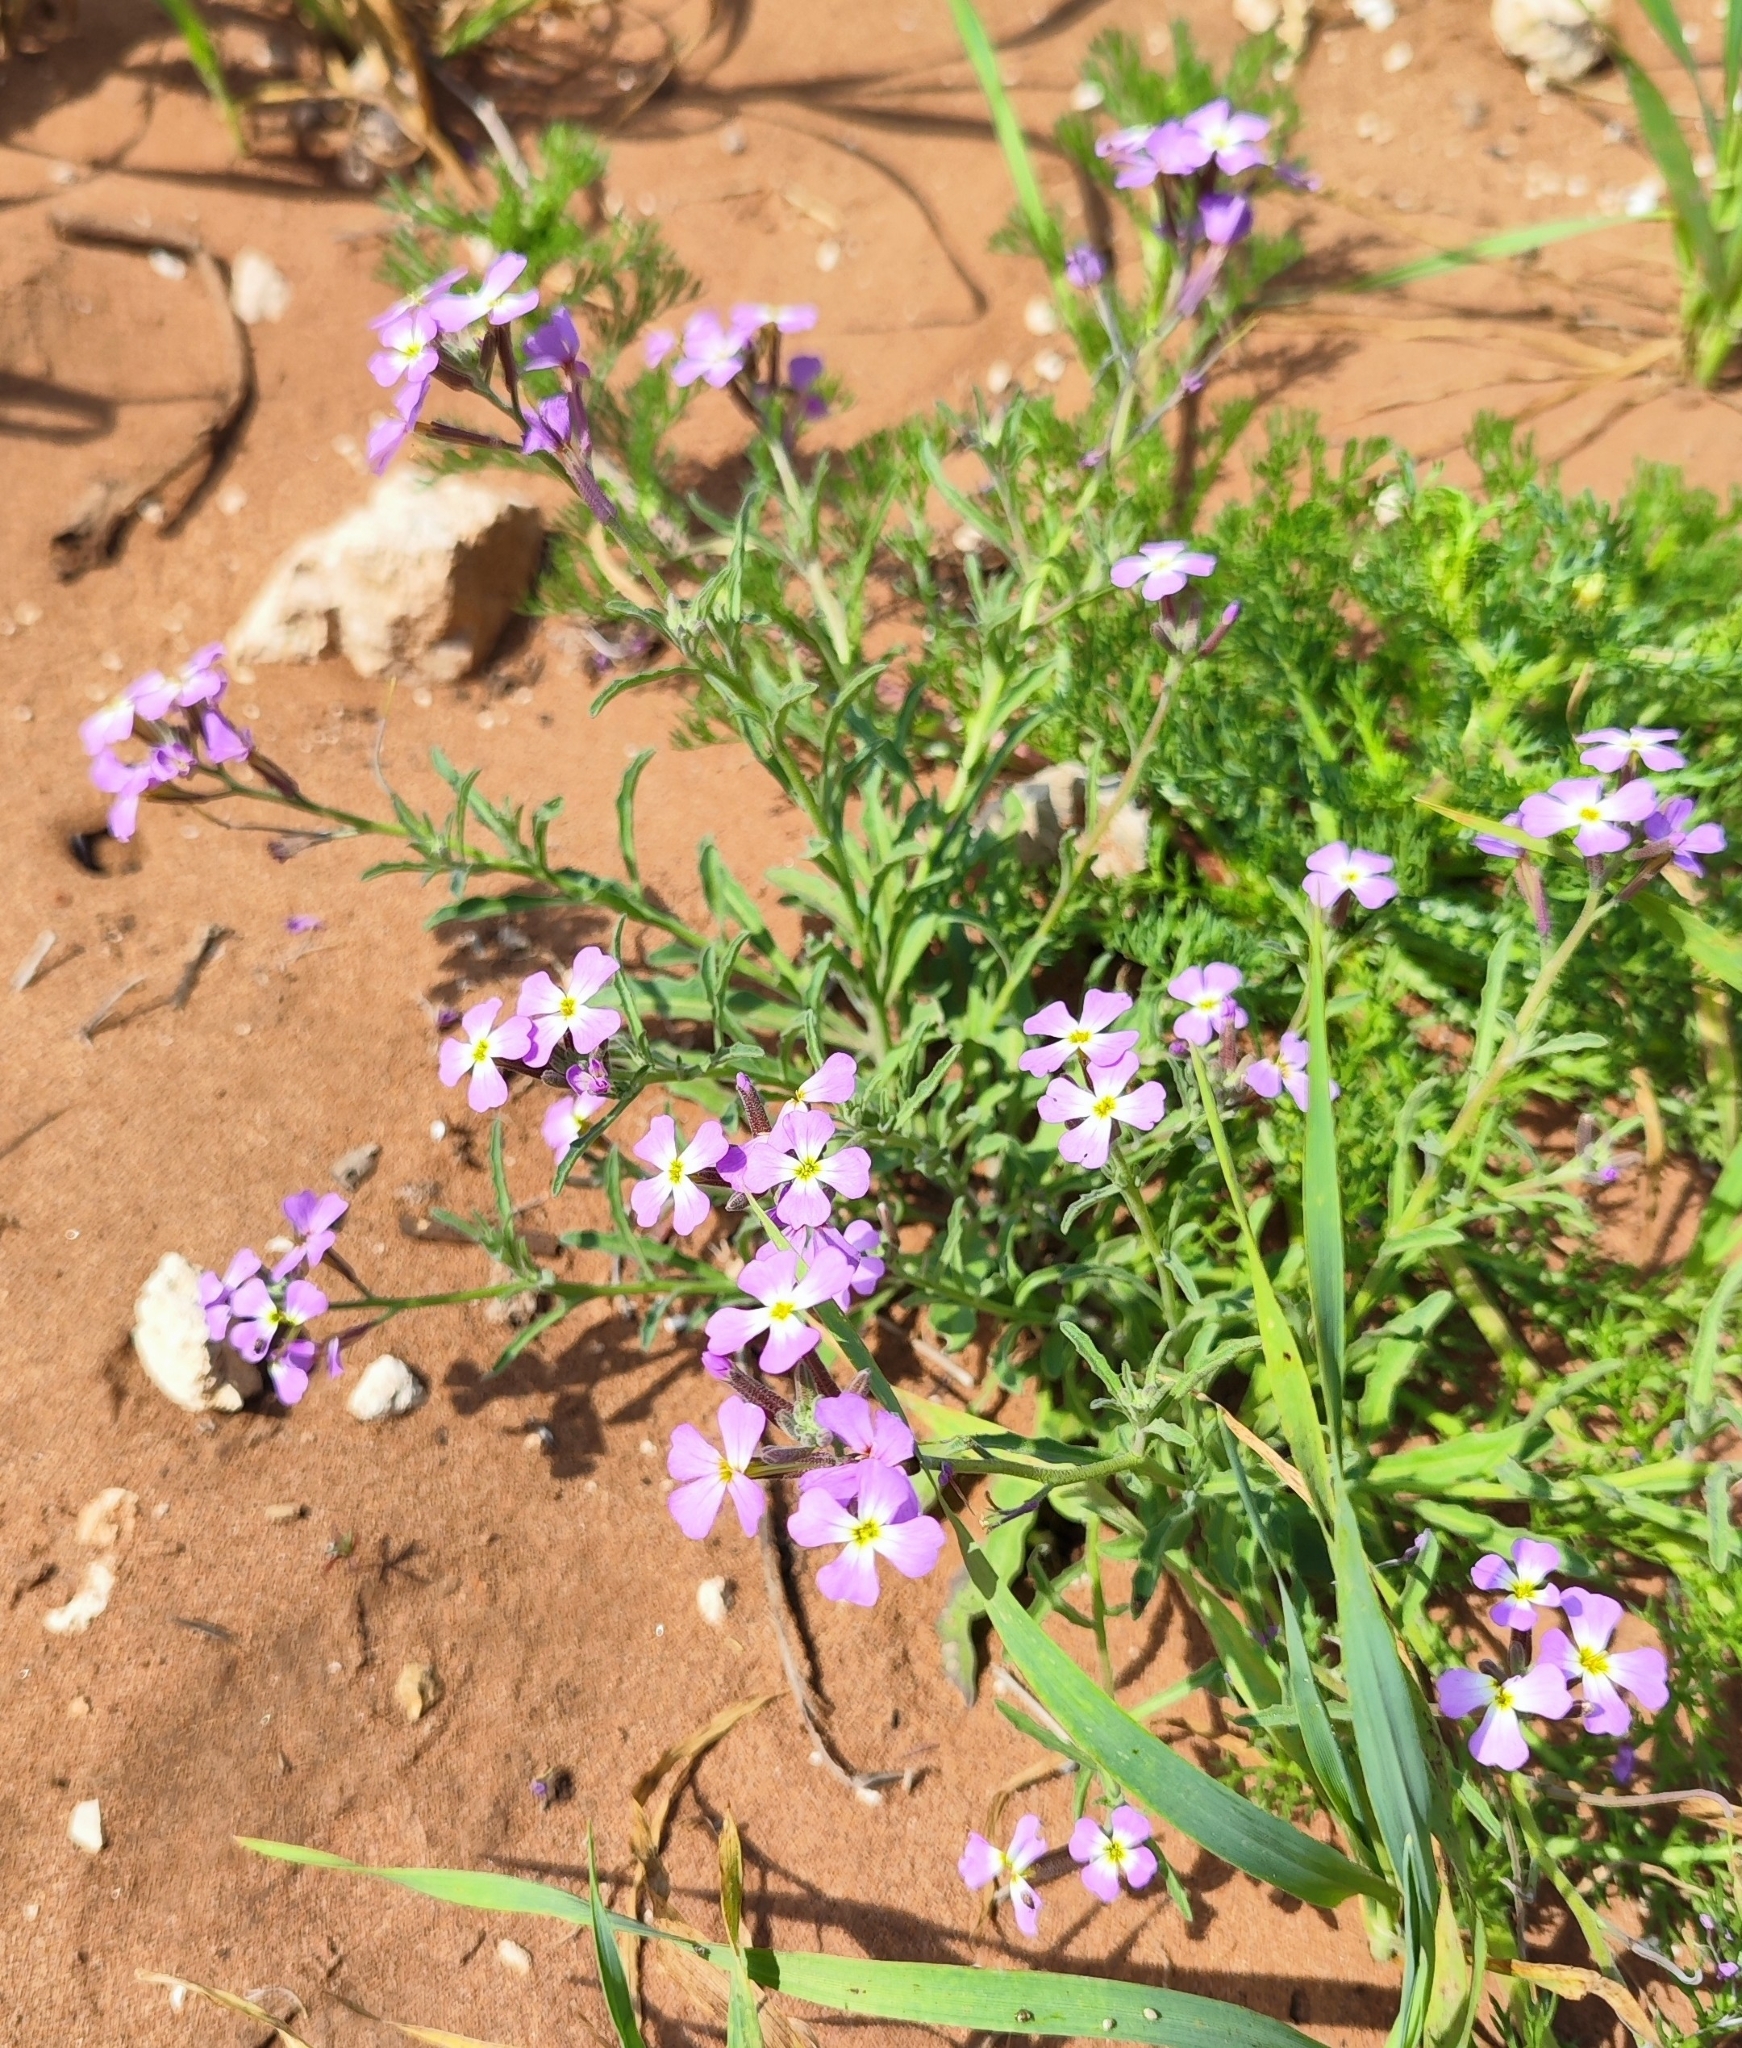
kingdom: Plantae
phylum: Tracheophyta
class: Magnoliopsida
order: Brassicales
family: Brassicaceae
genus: Marcuskochia
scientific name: Marcuskochia littorea
